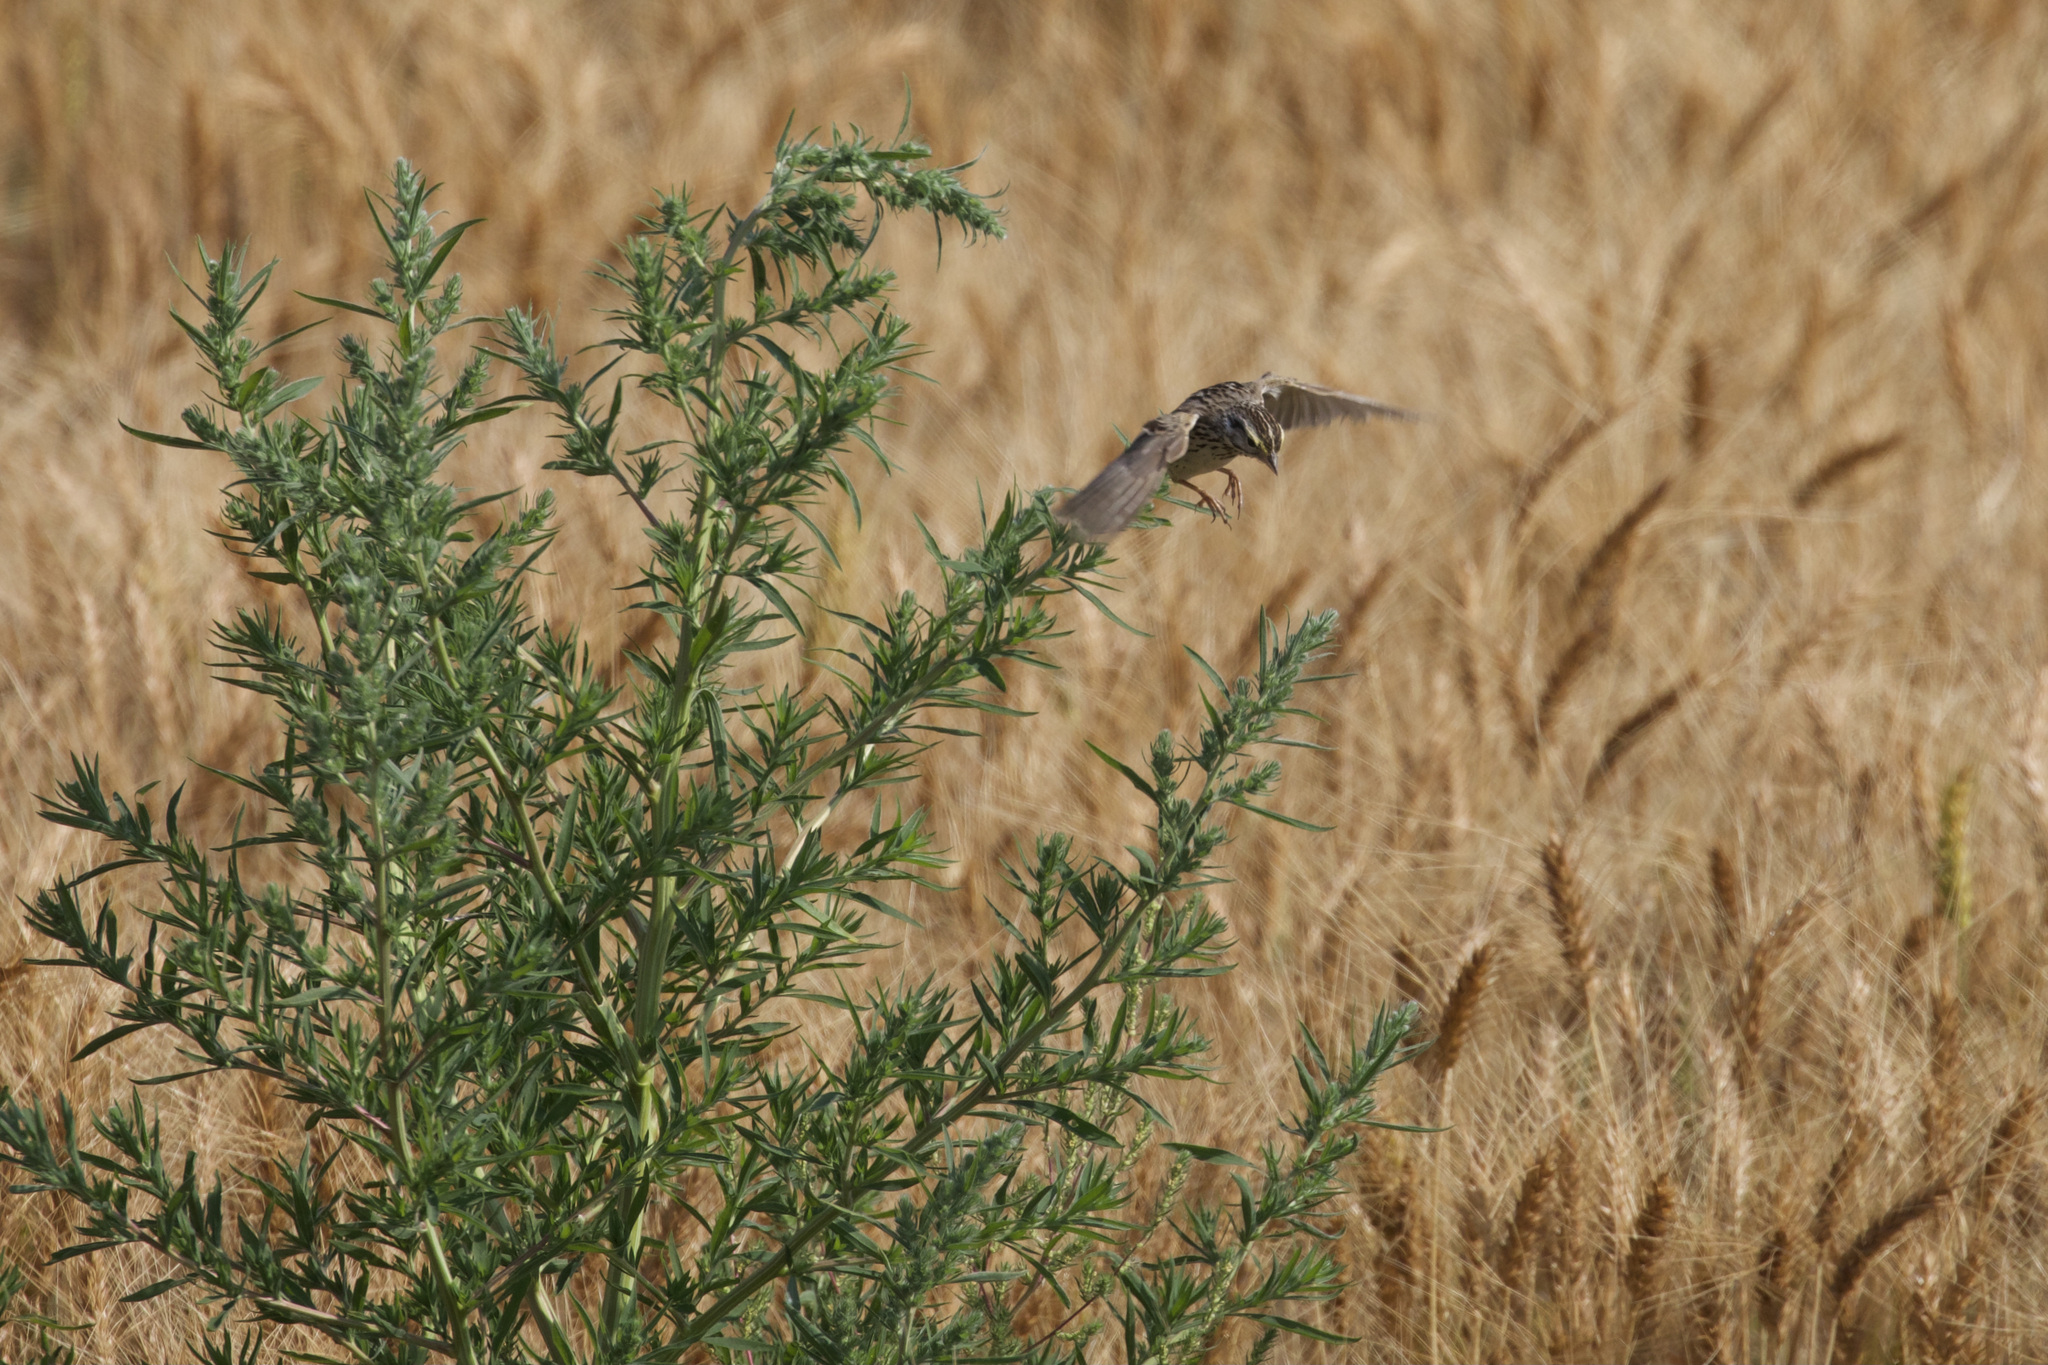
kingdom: Animalia
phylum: Chordata
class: Aves
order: Passeriformes
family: Passerellidae
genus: Passerculus
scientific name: Passerculus sandwichensis
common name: Savannah sparrow
